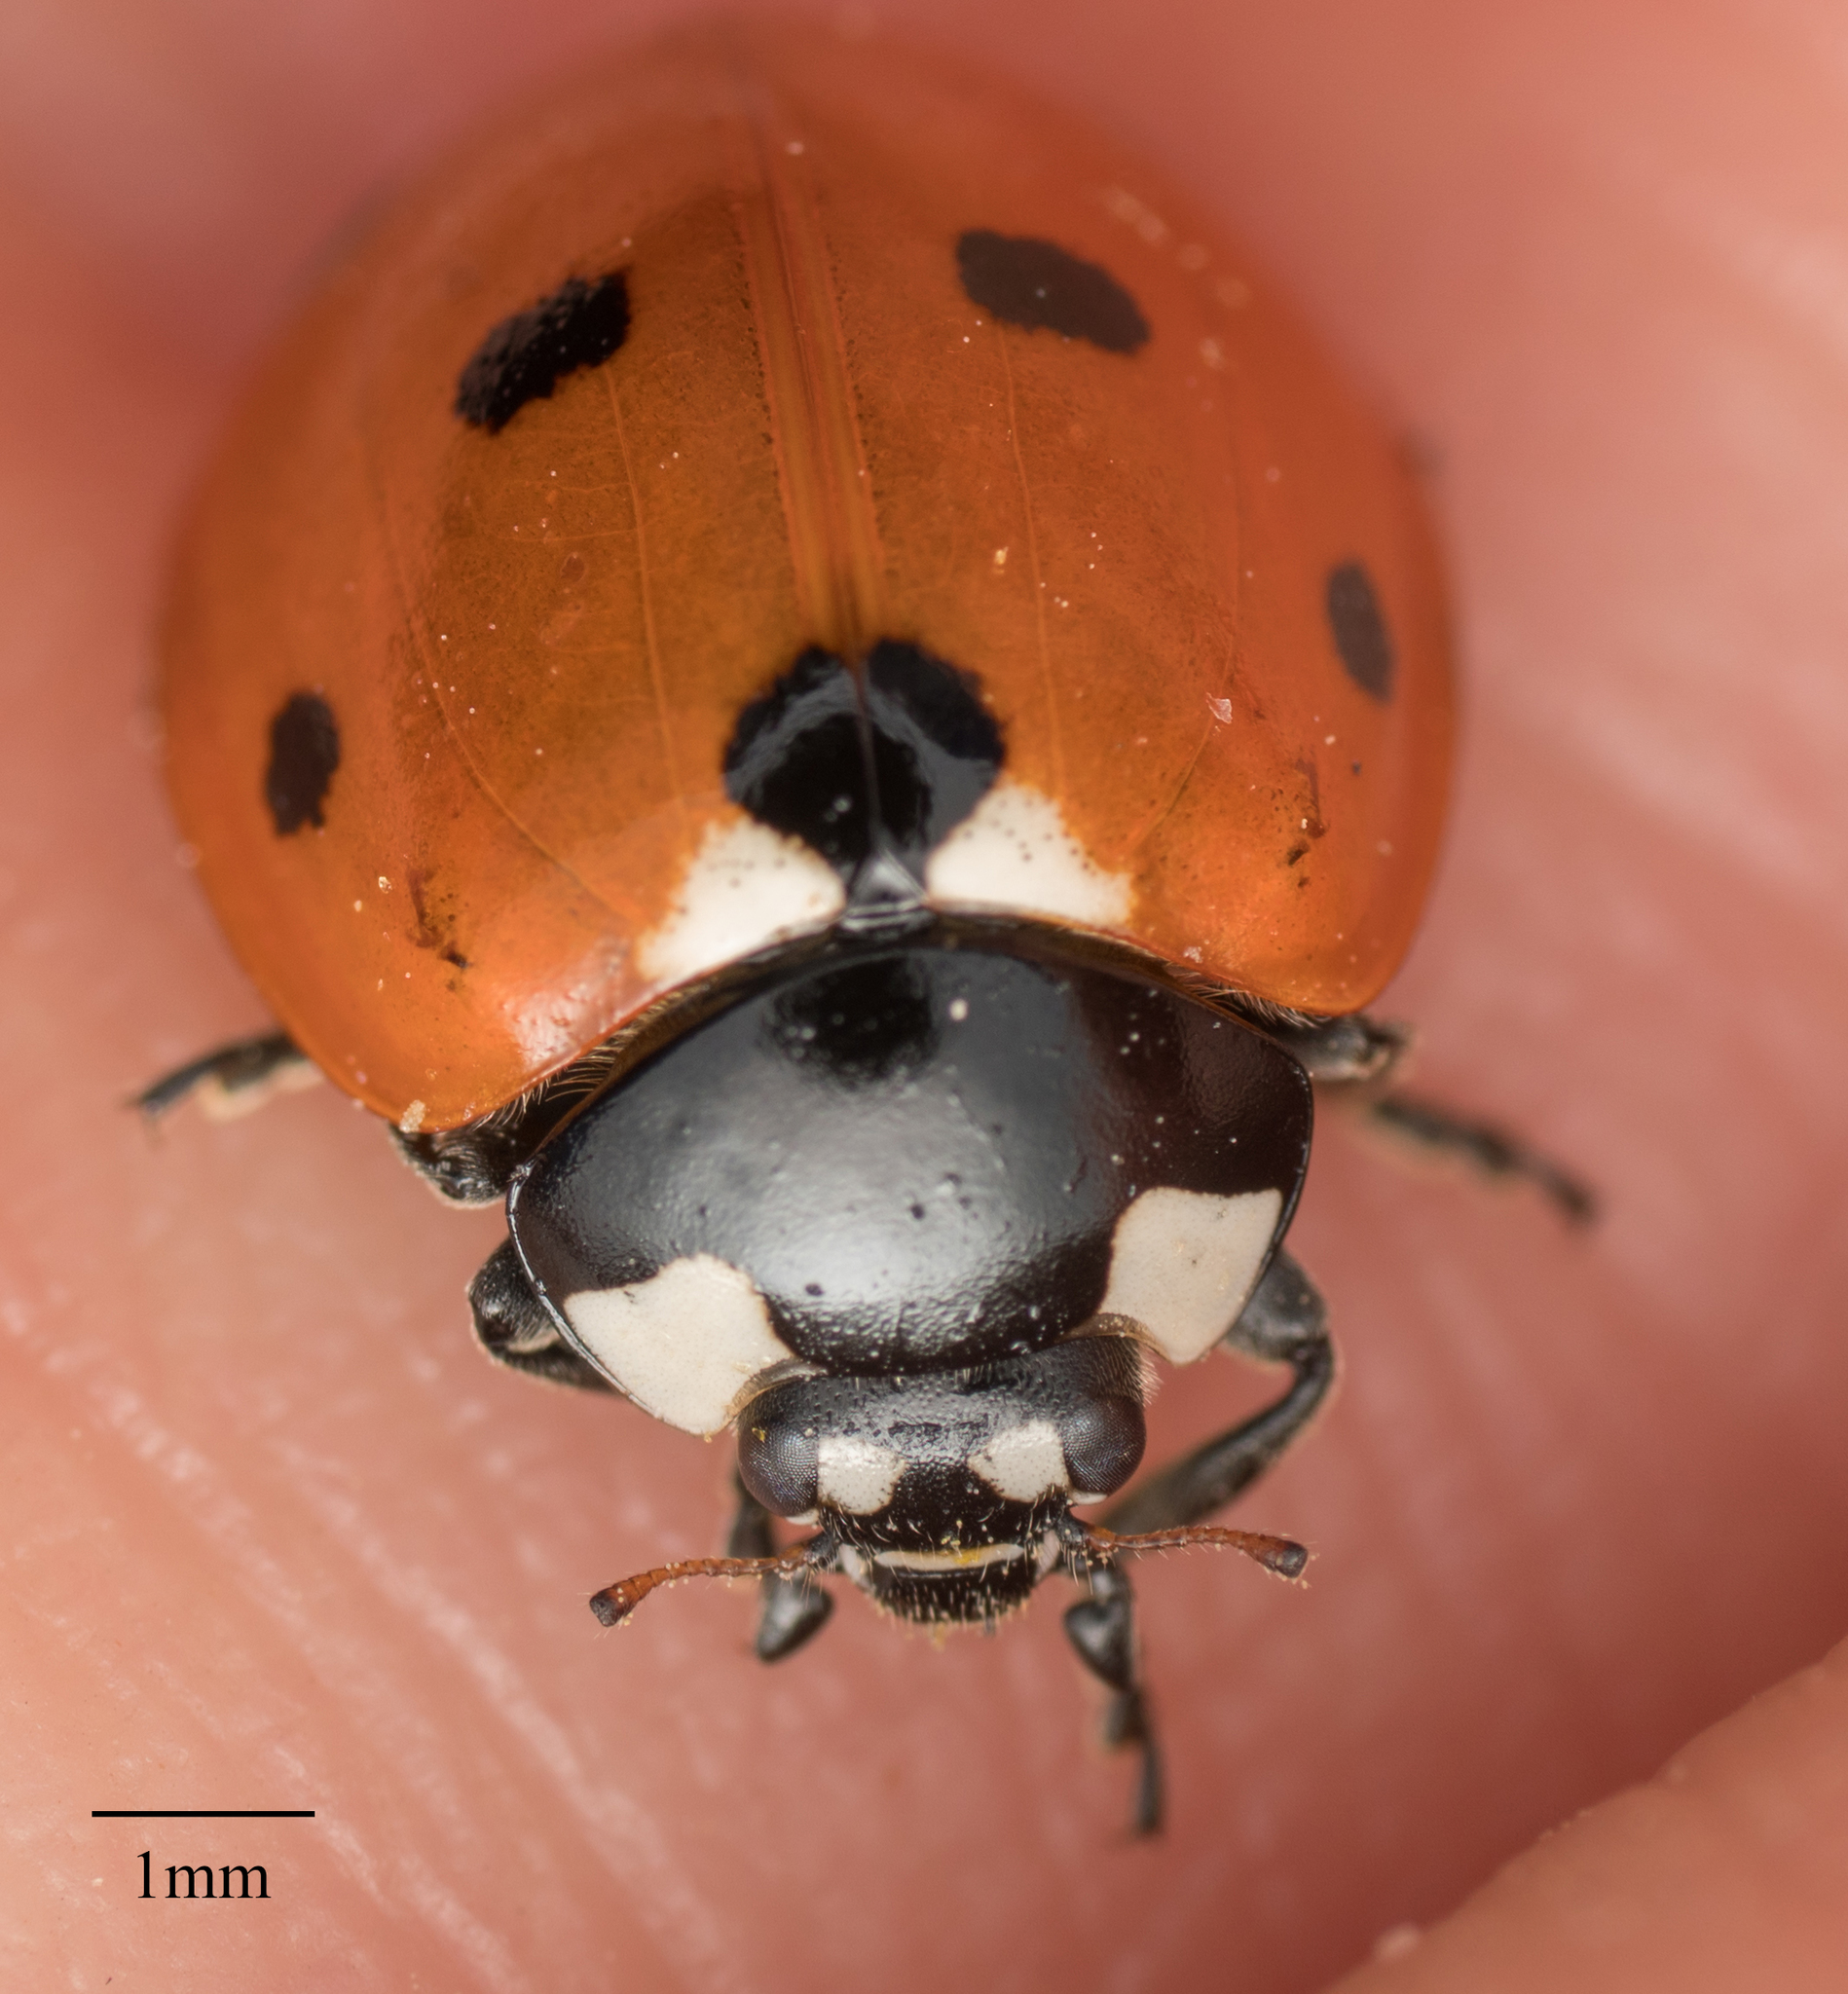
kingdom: Animalia
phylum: Arthropoda
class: Insecta
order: Coleoptera
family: Coccinellidae
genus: Coccinella
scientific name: Coccinella septempunctata
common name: Sevenspotted lady beetle
